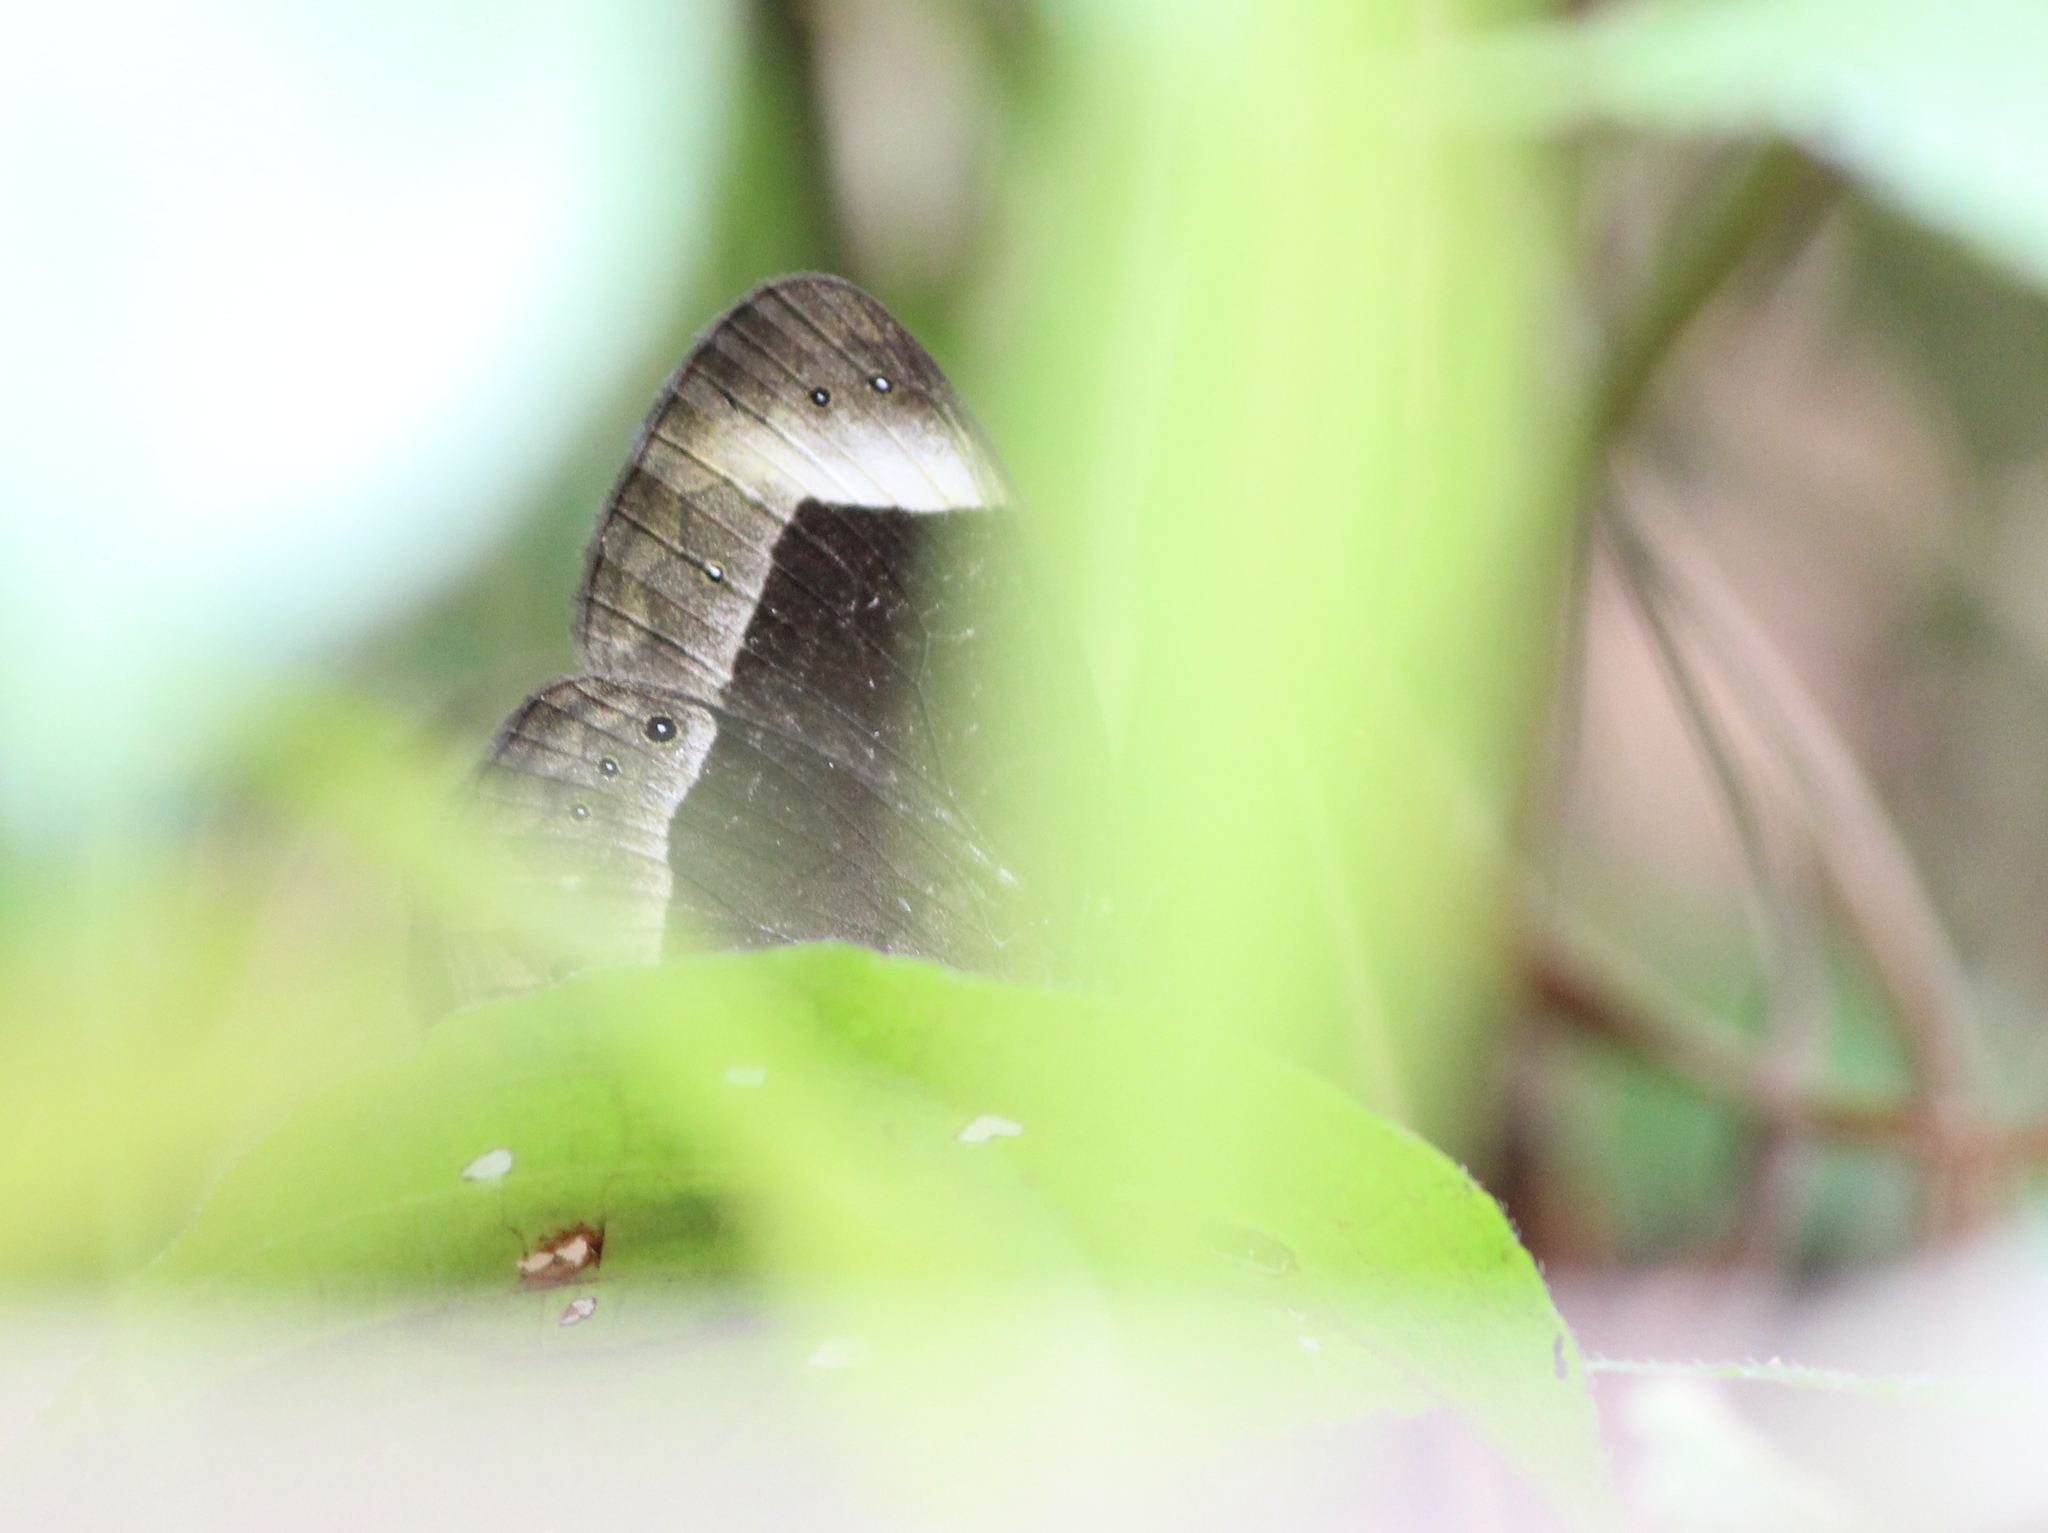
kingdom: Animalia
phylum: Arthropoda
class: Insecta
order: Lepidoptera
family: Nymphalidae
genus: Mycalesis
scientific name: Mycalesis anaxias
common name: White-bar bushbrown
